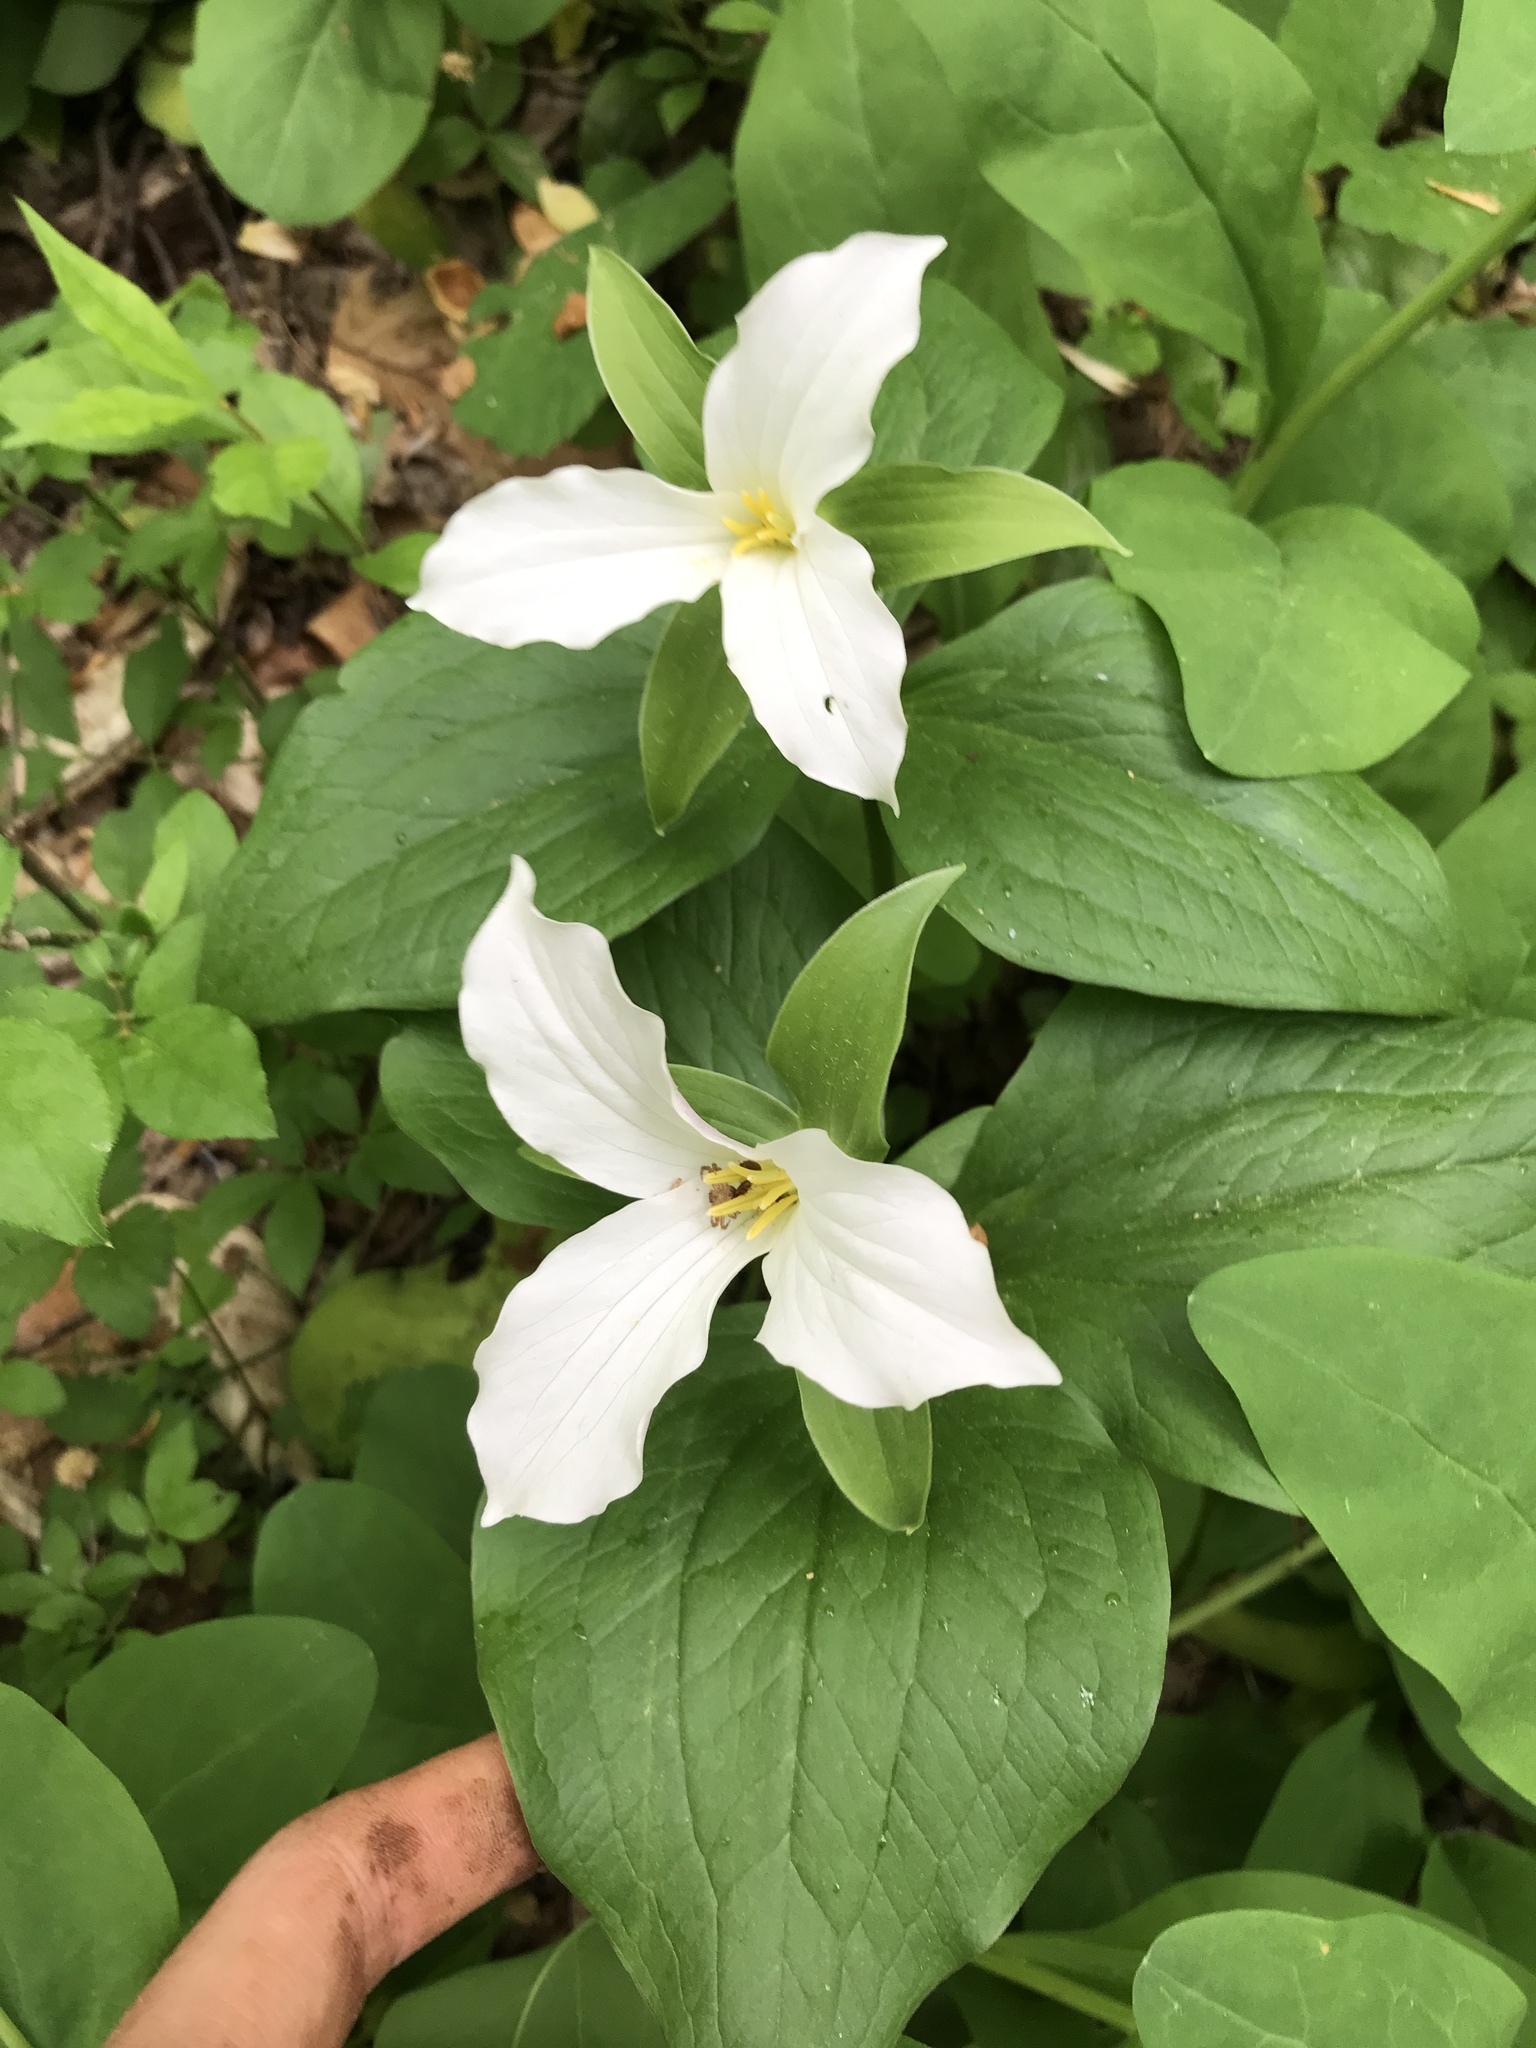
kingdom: Plantae
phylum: Tracheophyta
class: Liliopsida
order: Liliales
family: Melanthiaceae
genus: Trillium
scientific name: Trillium grandiflorum
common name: Great white trillium
